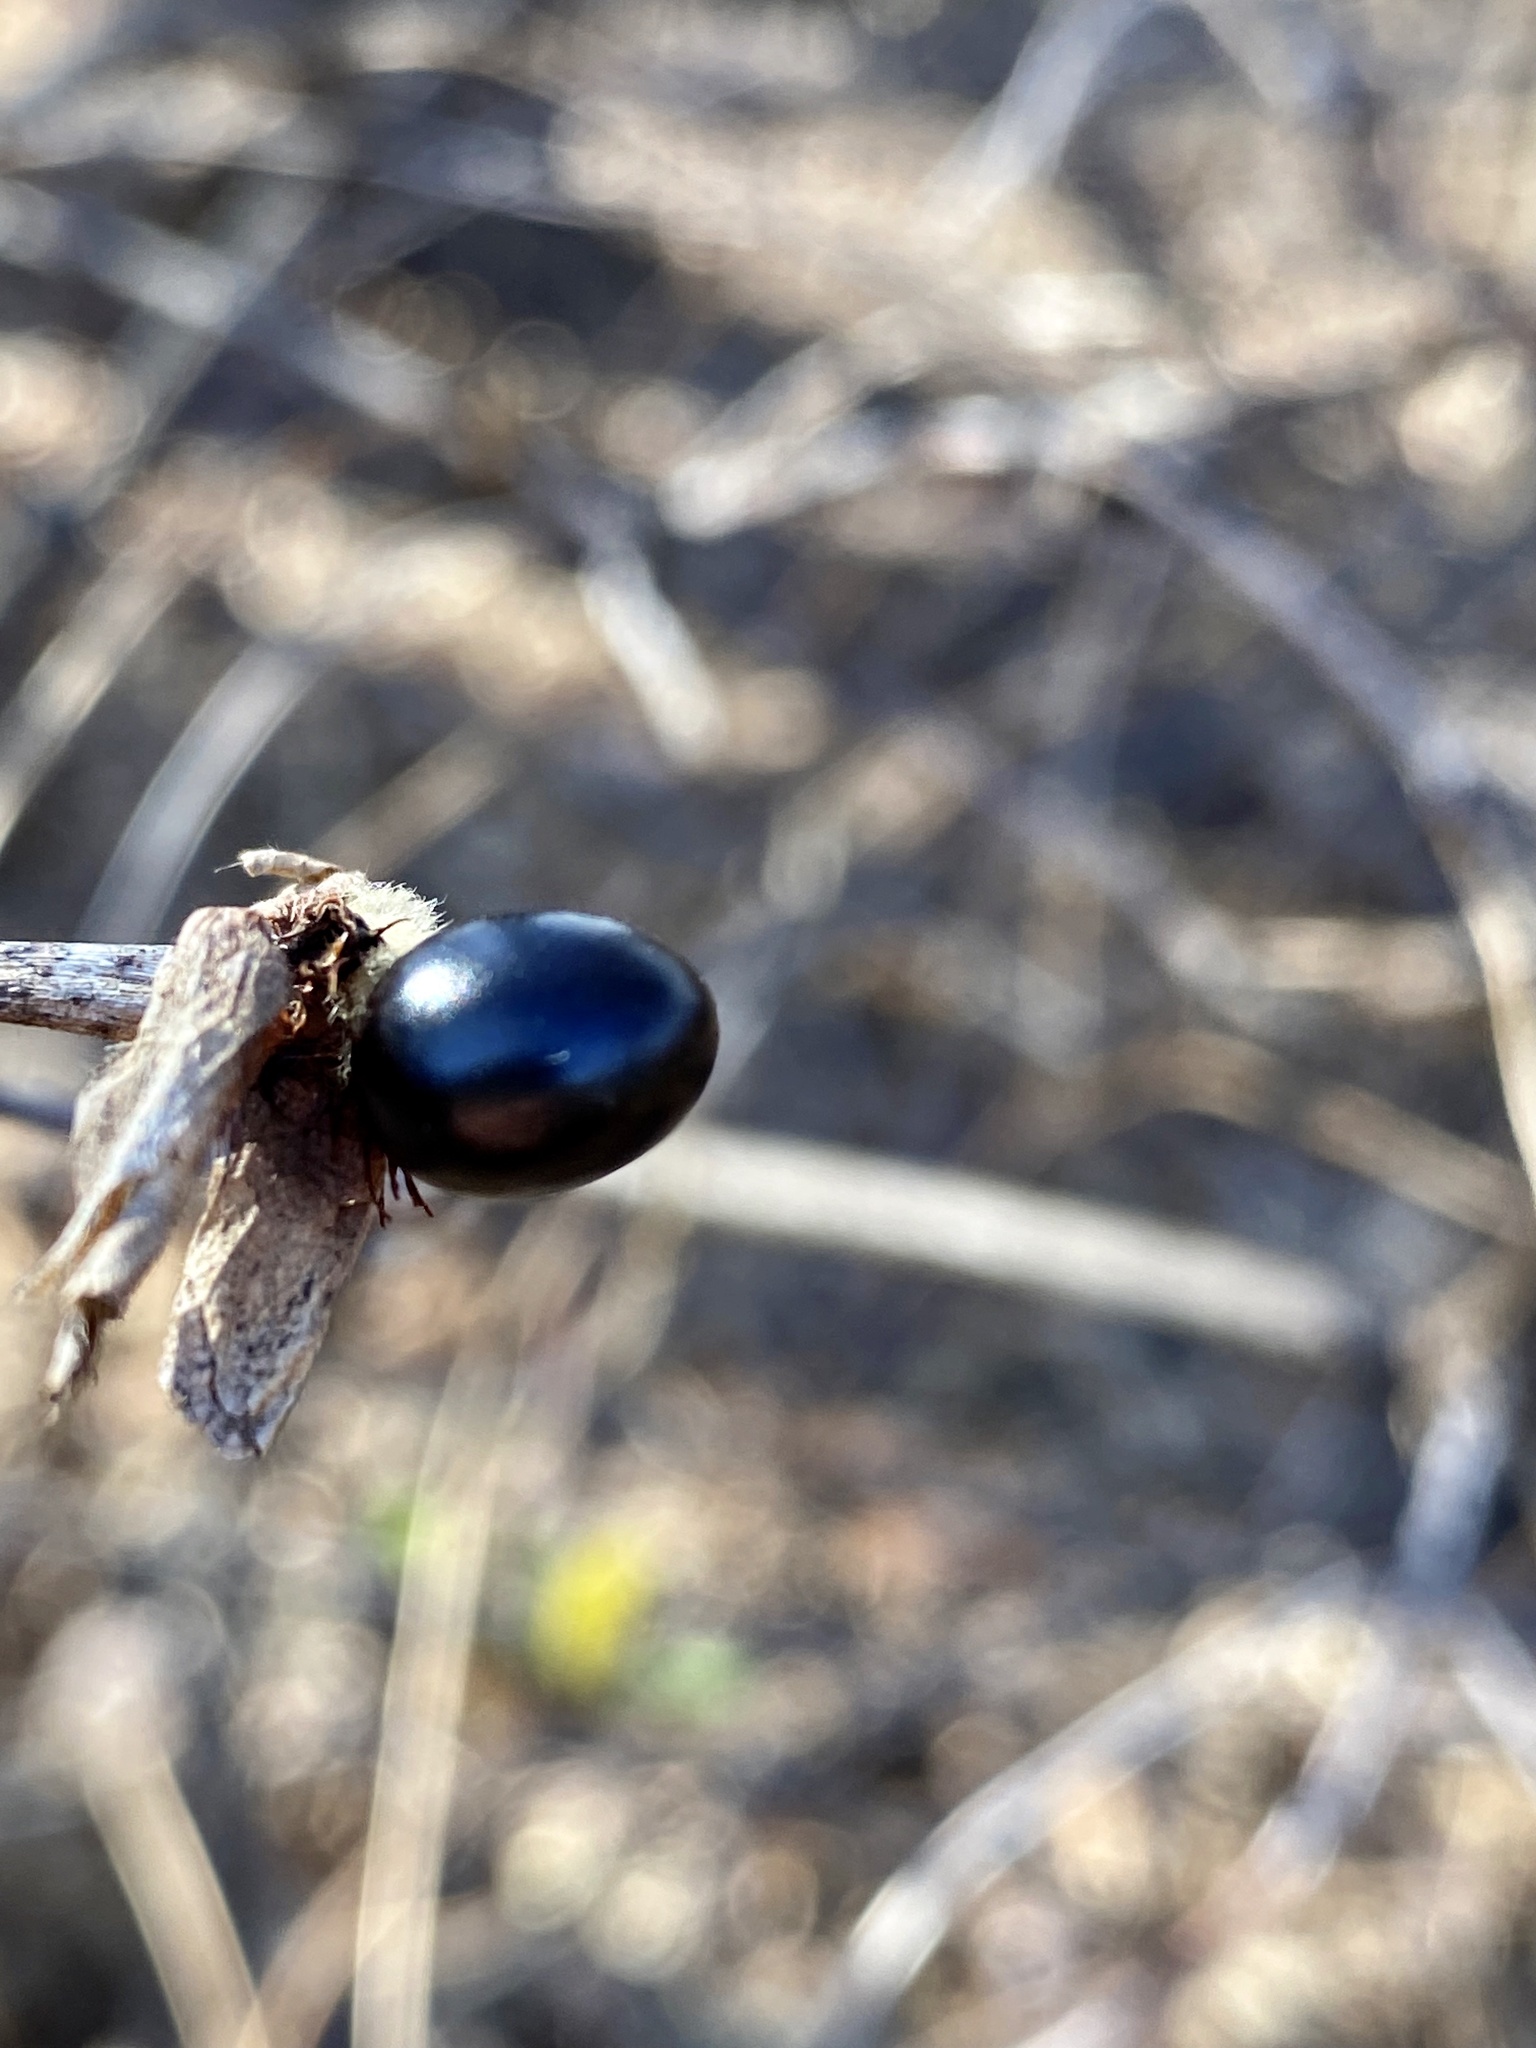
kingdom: Plantae
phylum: Tracheophyta
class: Magnoliopsida
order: Rosales
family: Rosaceae
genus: Rhodotypos
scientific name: Rhodotypos scandens
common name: Jetbead
